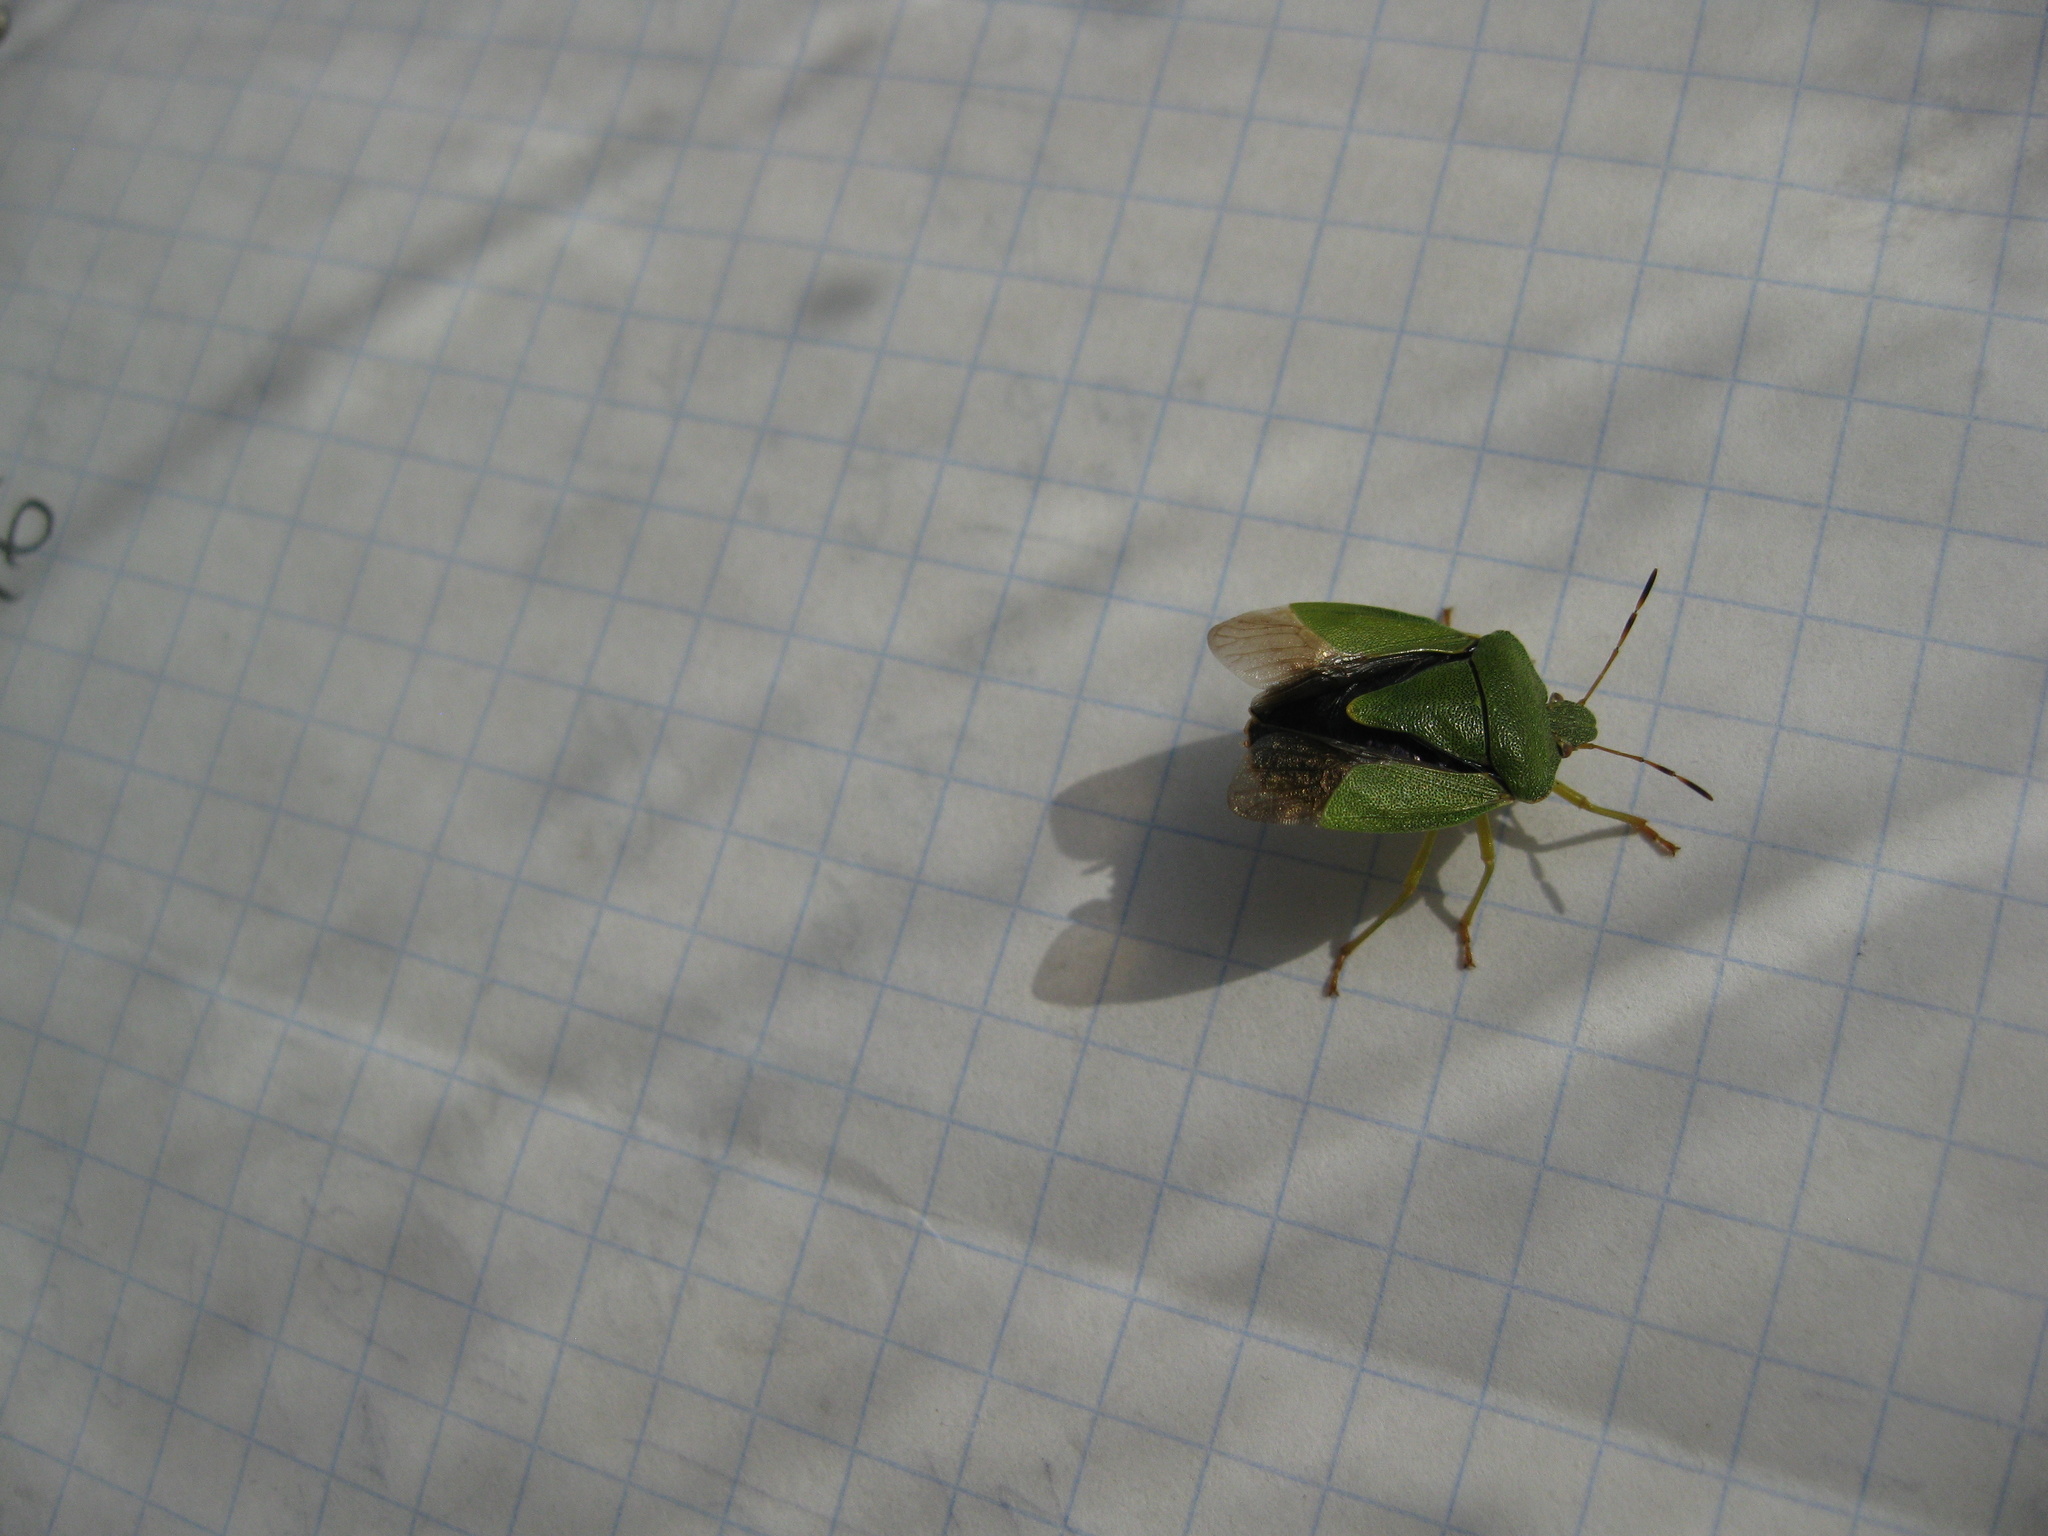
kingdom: Animalia
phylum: Arthropoda
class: Insecta
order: Hemiptera
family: Pentatomidae
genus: Palomena
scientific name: Palomena prasina
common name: Green shieldbug
